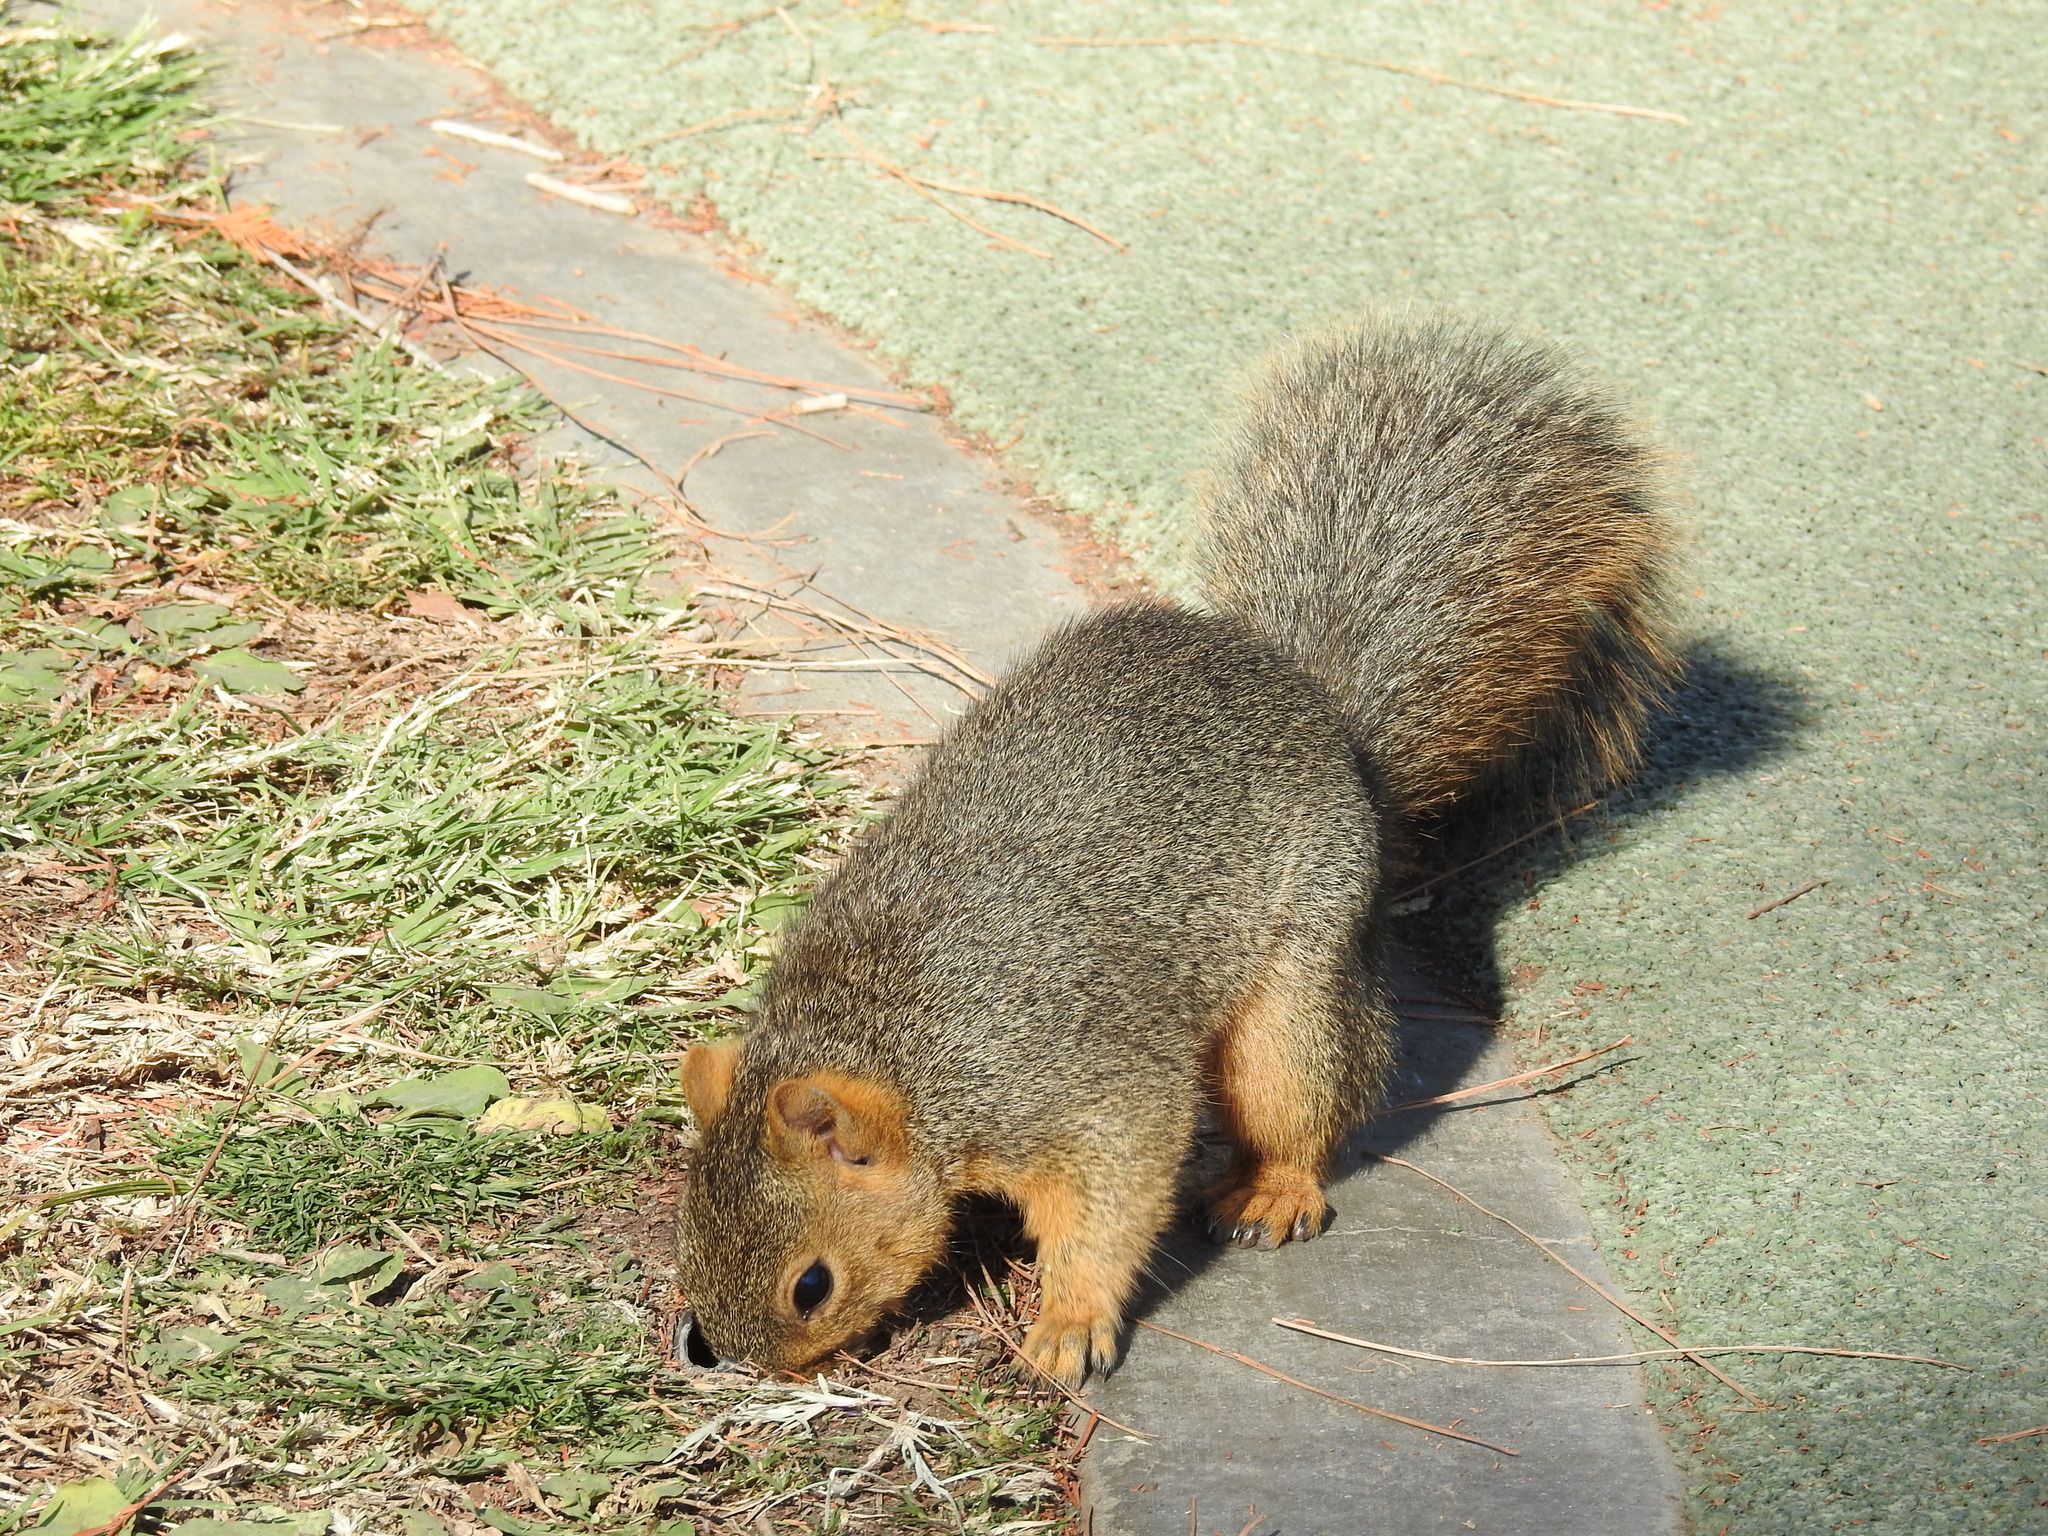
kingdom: Animalia
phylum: Chordata
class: Mammalia
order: Rodentia
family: Sciuridae
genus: Sciurus
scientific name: Sciurus niger
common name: Fox squirrel
